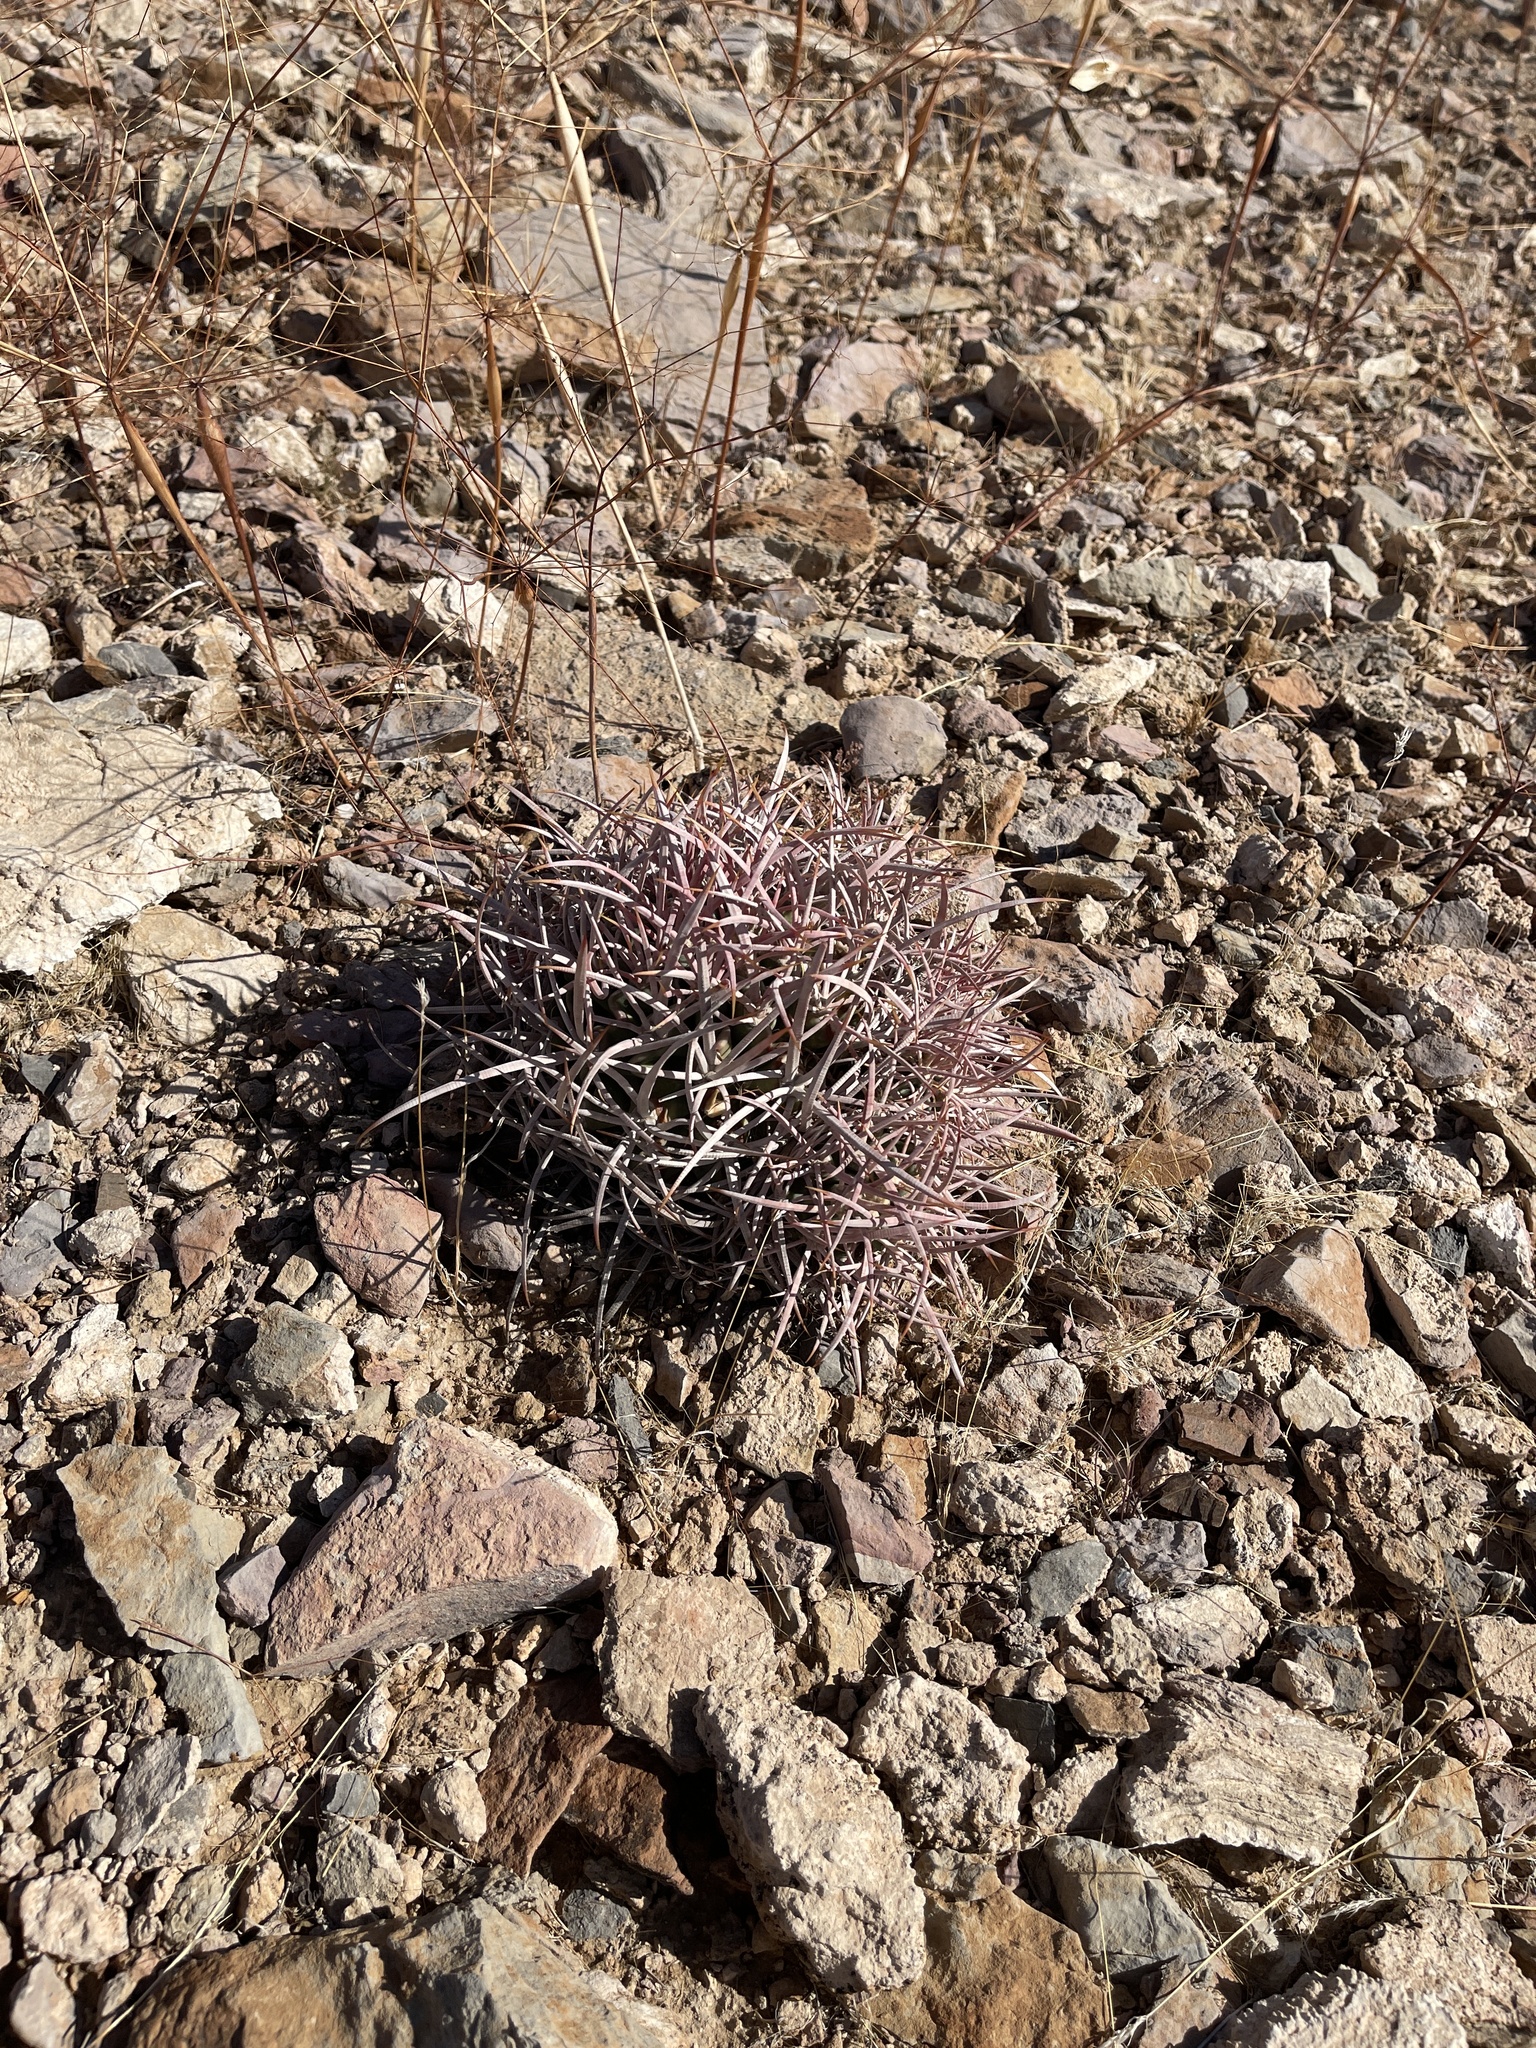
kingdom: Plantae
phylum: Tracheophyta
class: Magnoliopsida
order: Caryophyllales
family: Cactaceae
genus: Echinocactus
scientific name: Echinocactus polycephalus
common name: Cottontop cactus
